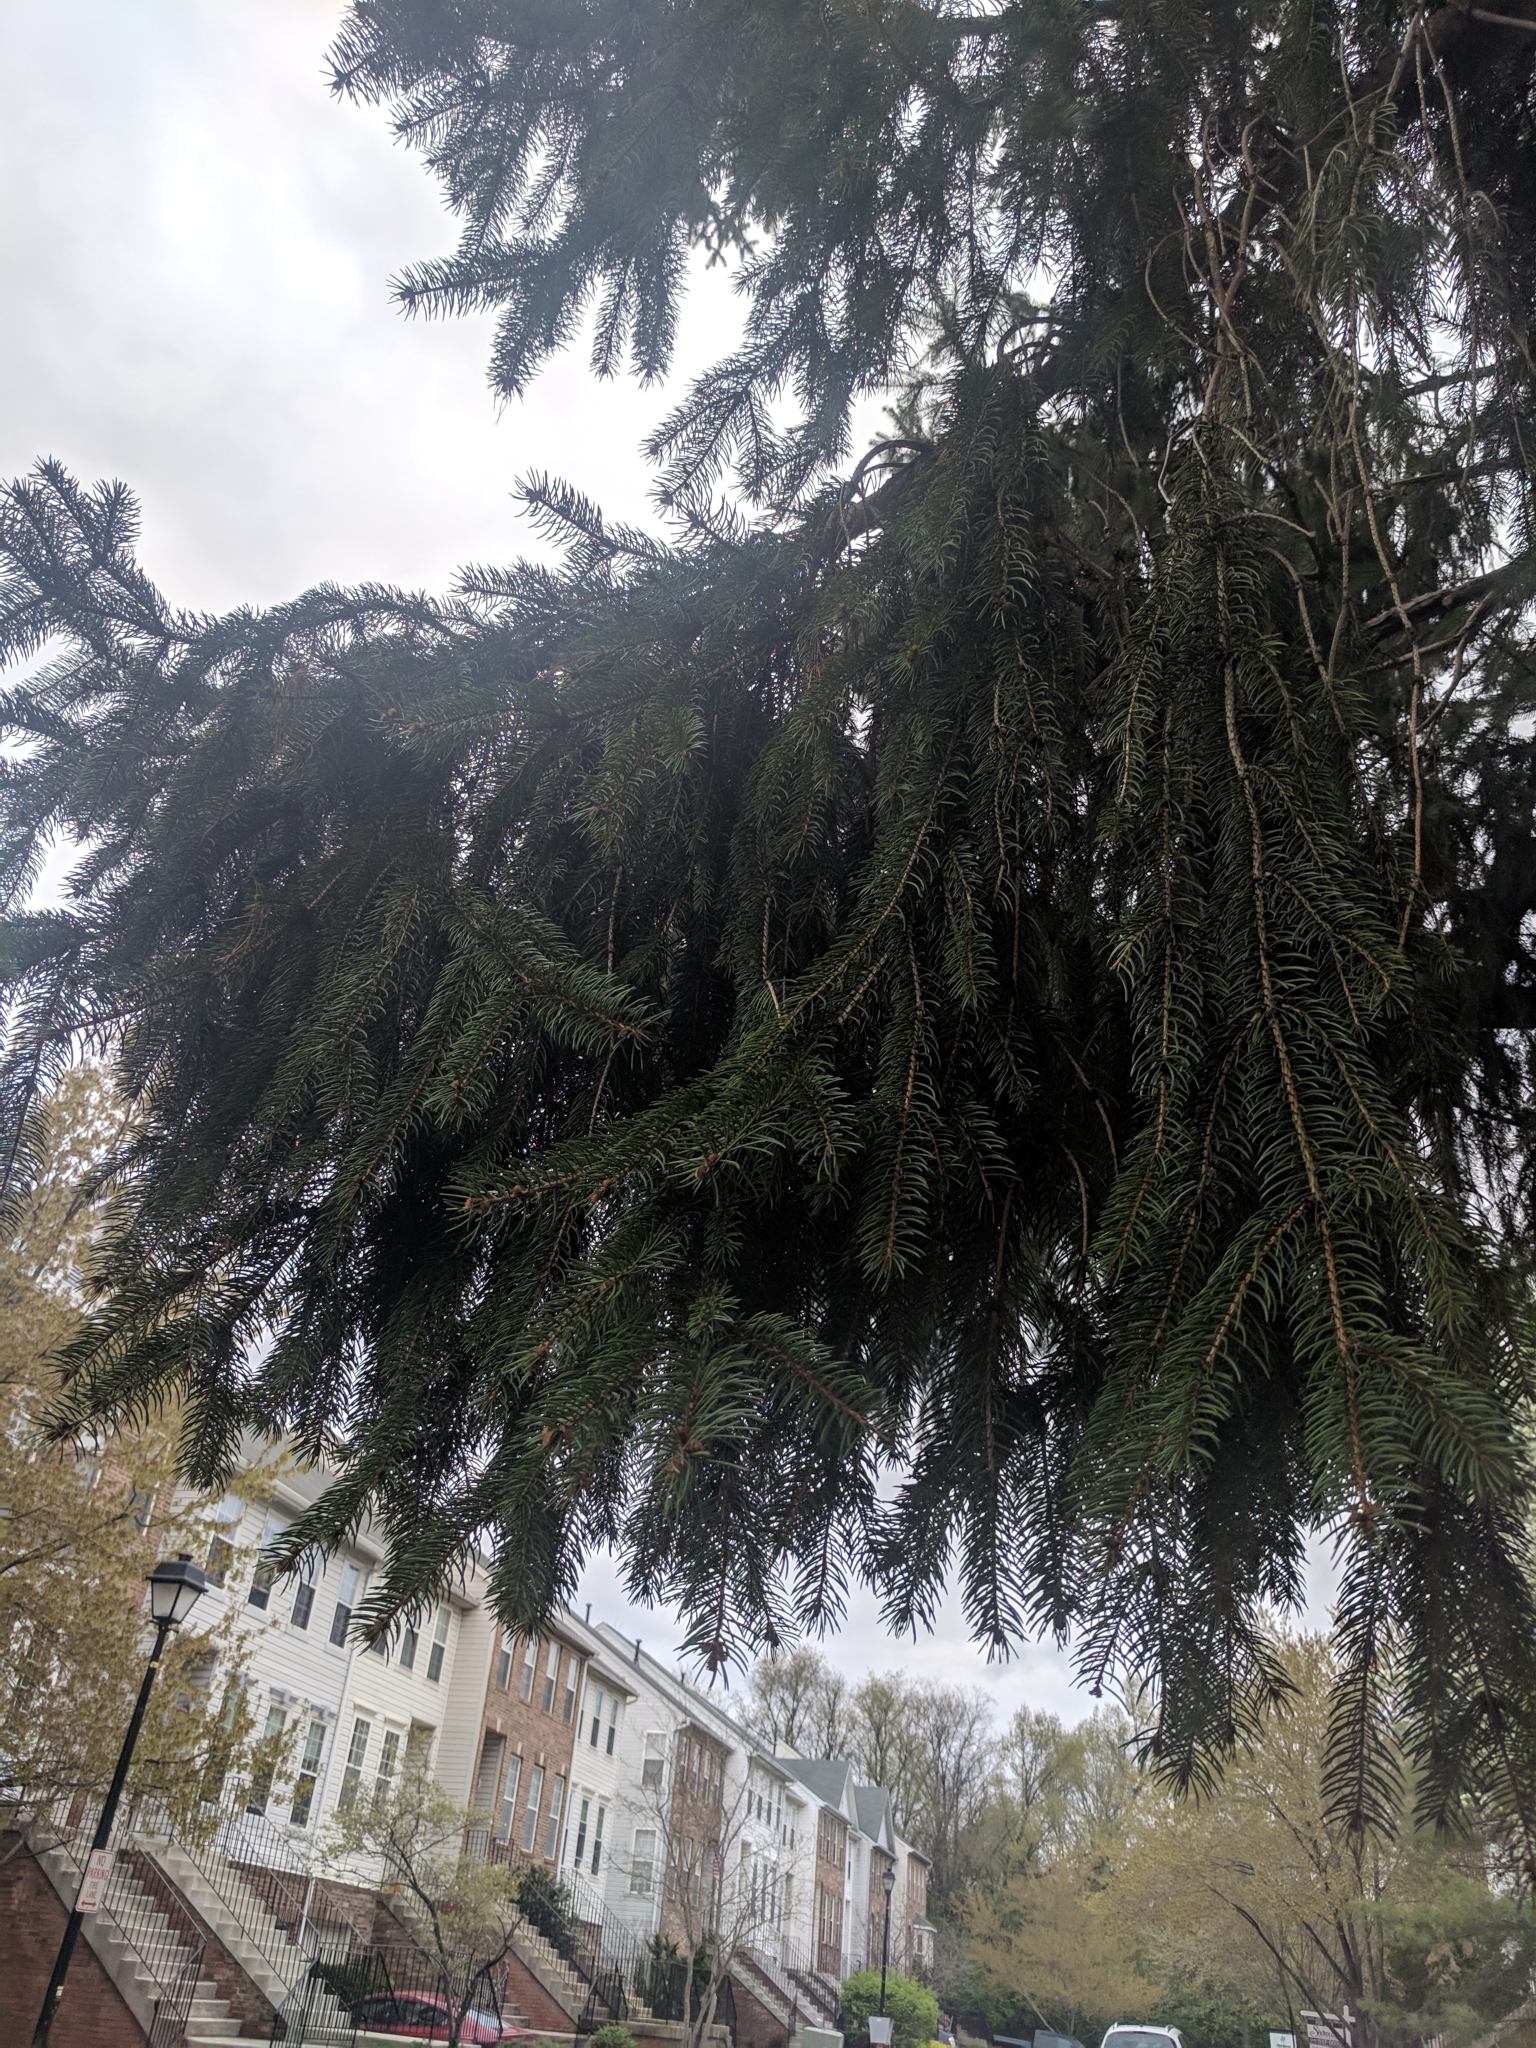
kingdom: Plantae
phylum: Tracheophyta
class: Pinopsida
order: Pinales
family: Pinaceae
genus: Picea
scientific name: Picea abies
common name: Norway spruce
